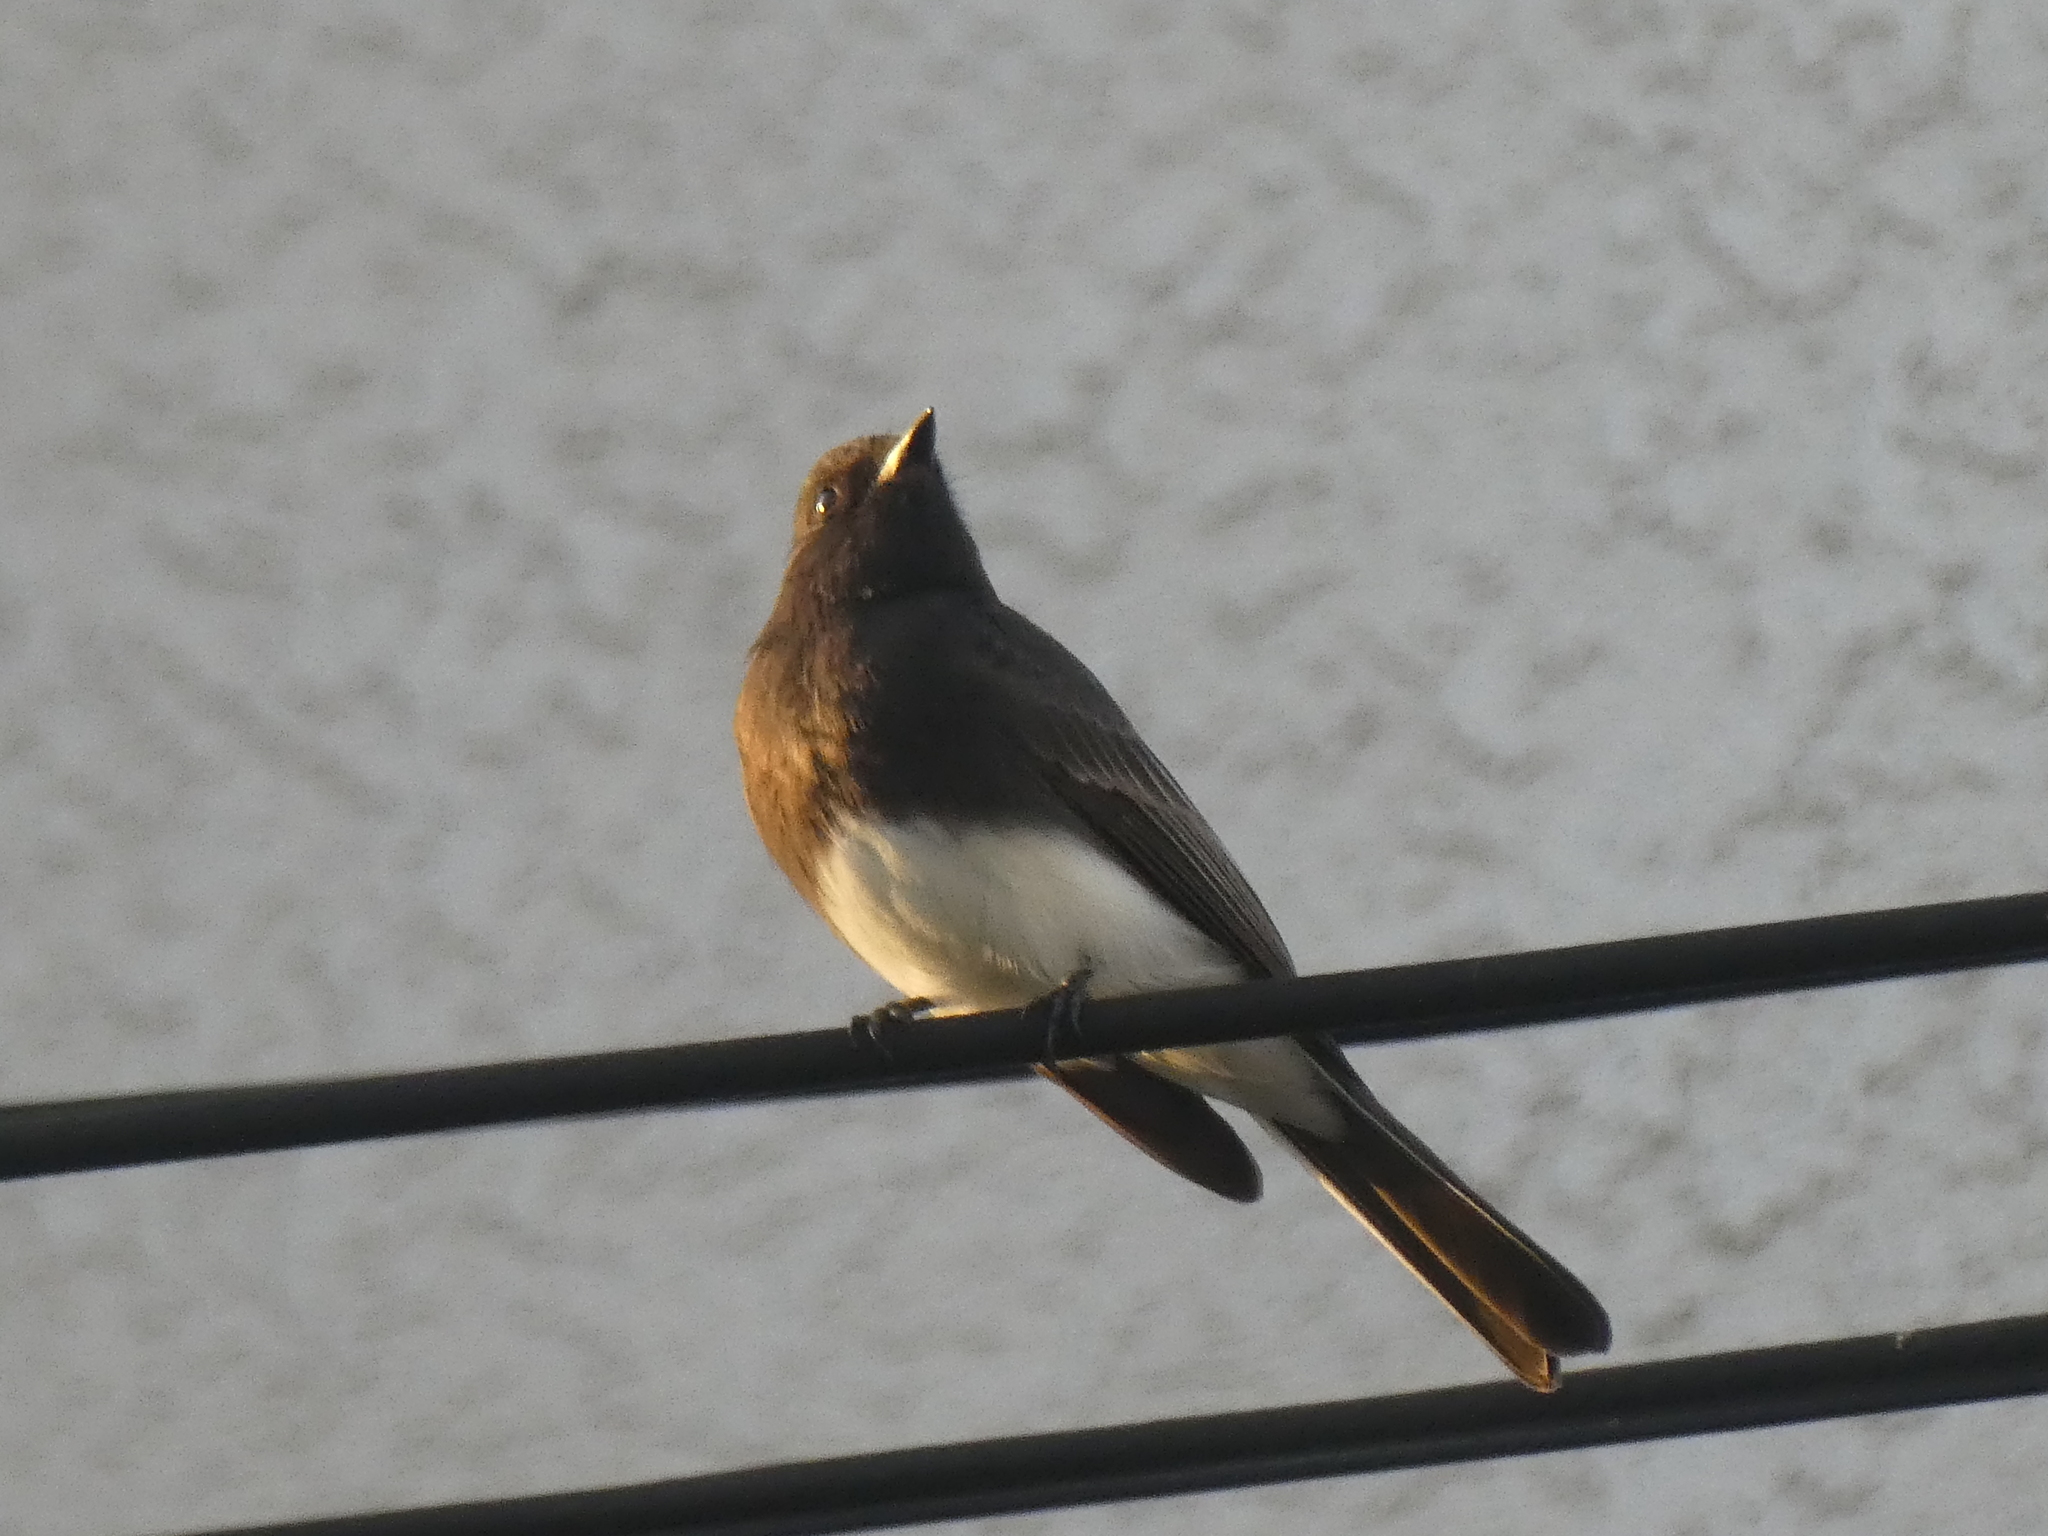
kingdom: Animalia
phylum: Chordata
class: Aves
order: Passeriformes
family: Tyrannidae
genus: Sayornis
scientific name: Sayornis nigricans
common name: Black phoebe
